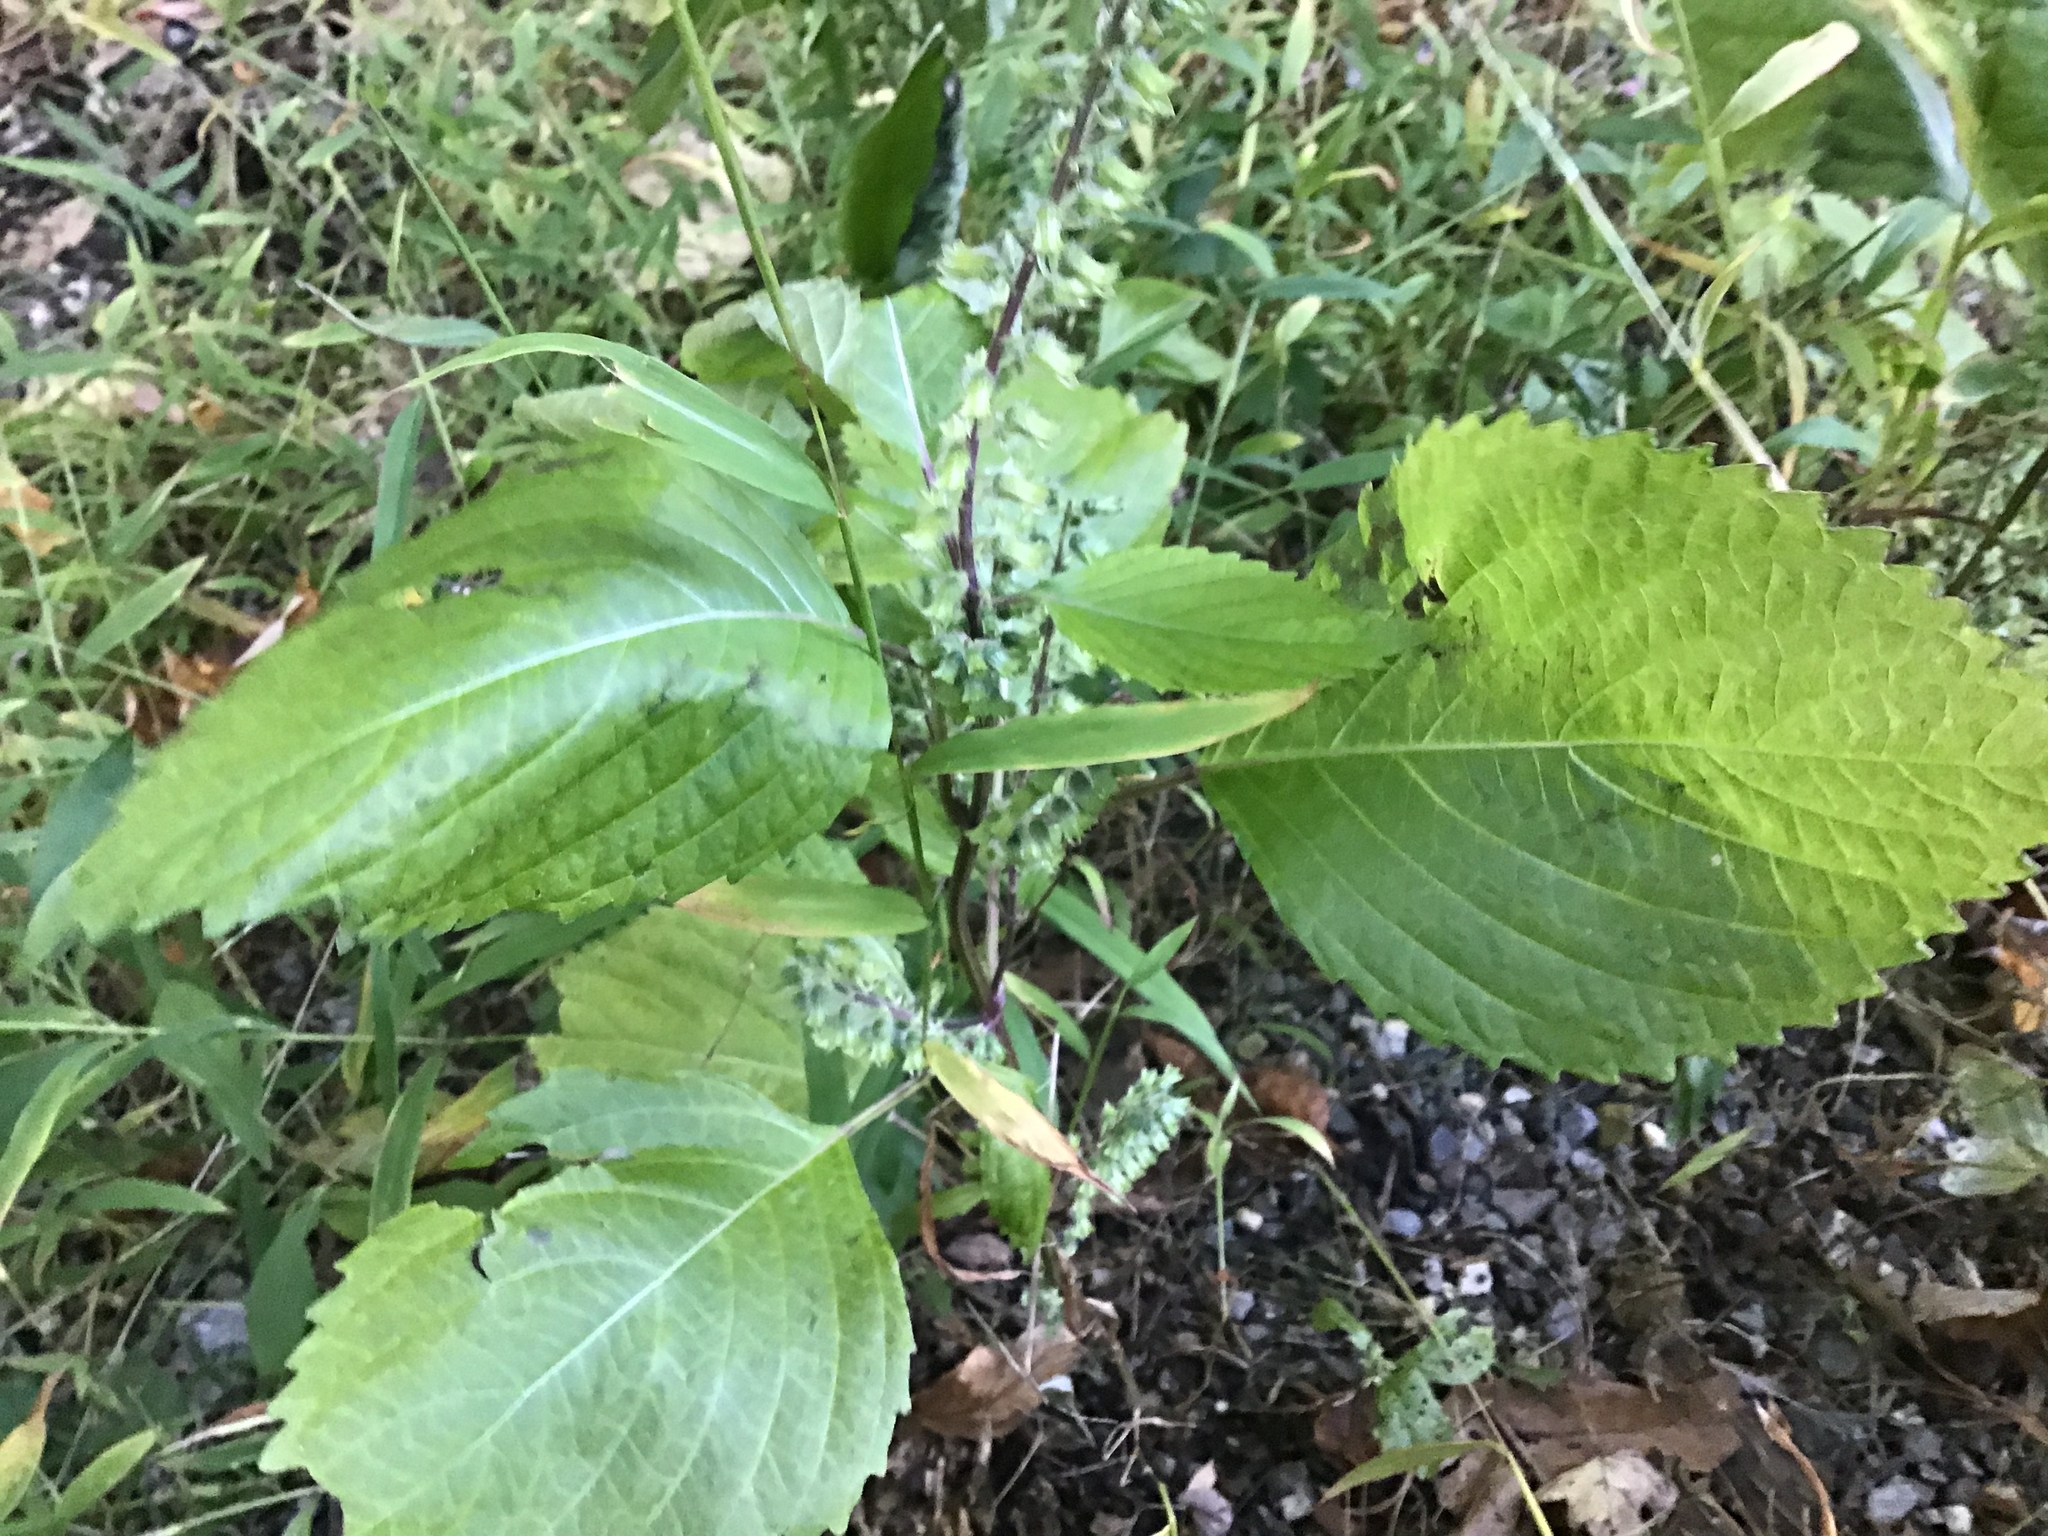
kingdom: Plantae
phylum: Tracheophyta
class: Magnoliopsida
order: Lamiales
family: Lamiaceae
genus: Perilla
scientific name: Perilla frutescens
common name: Perilla
